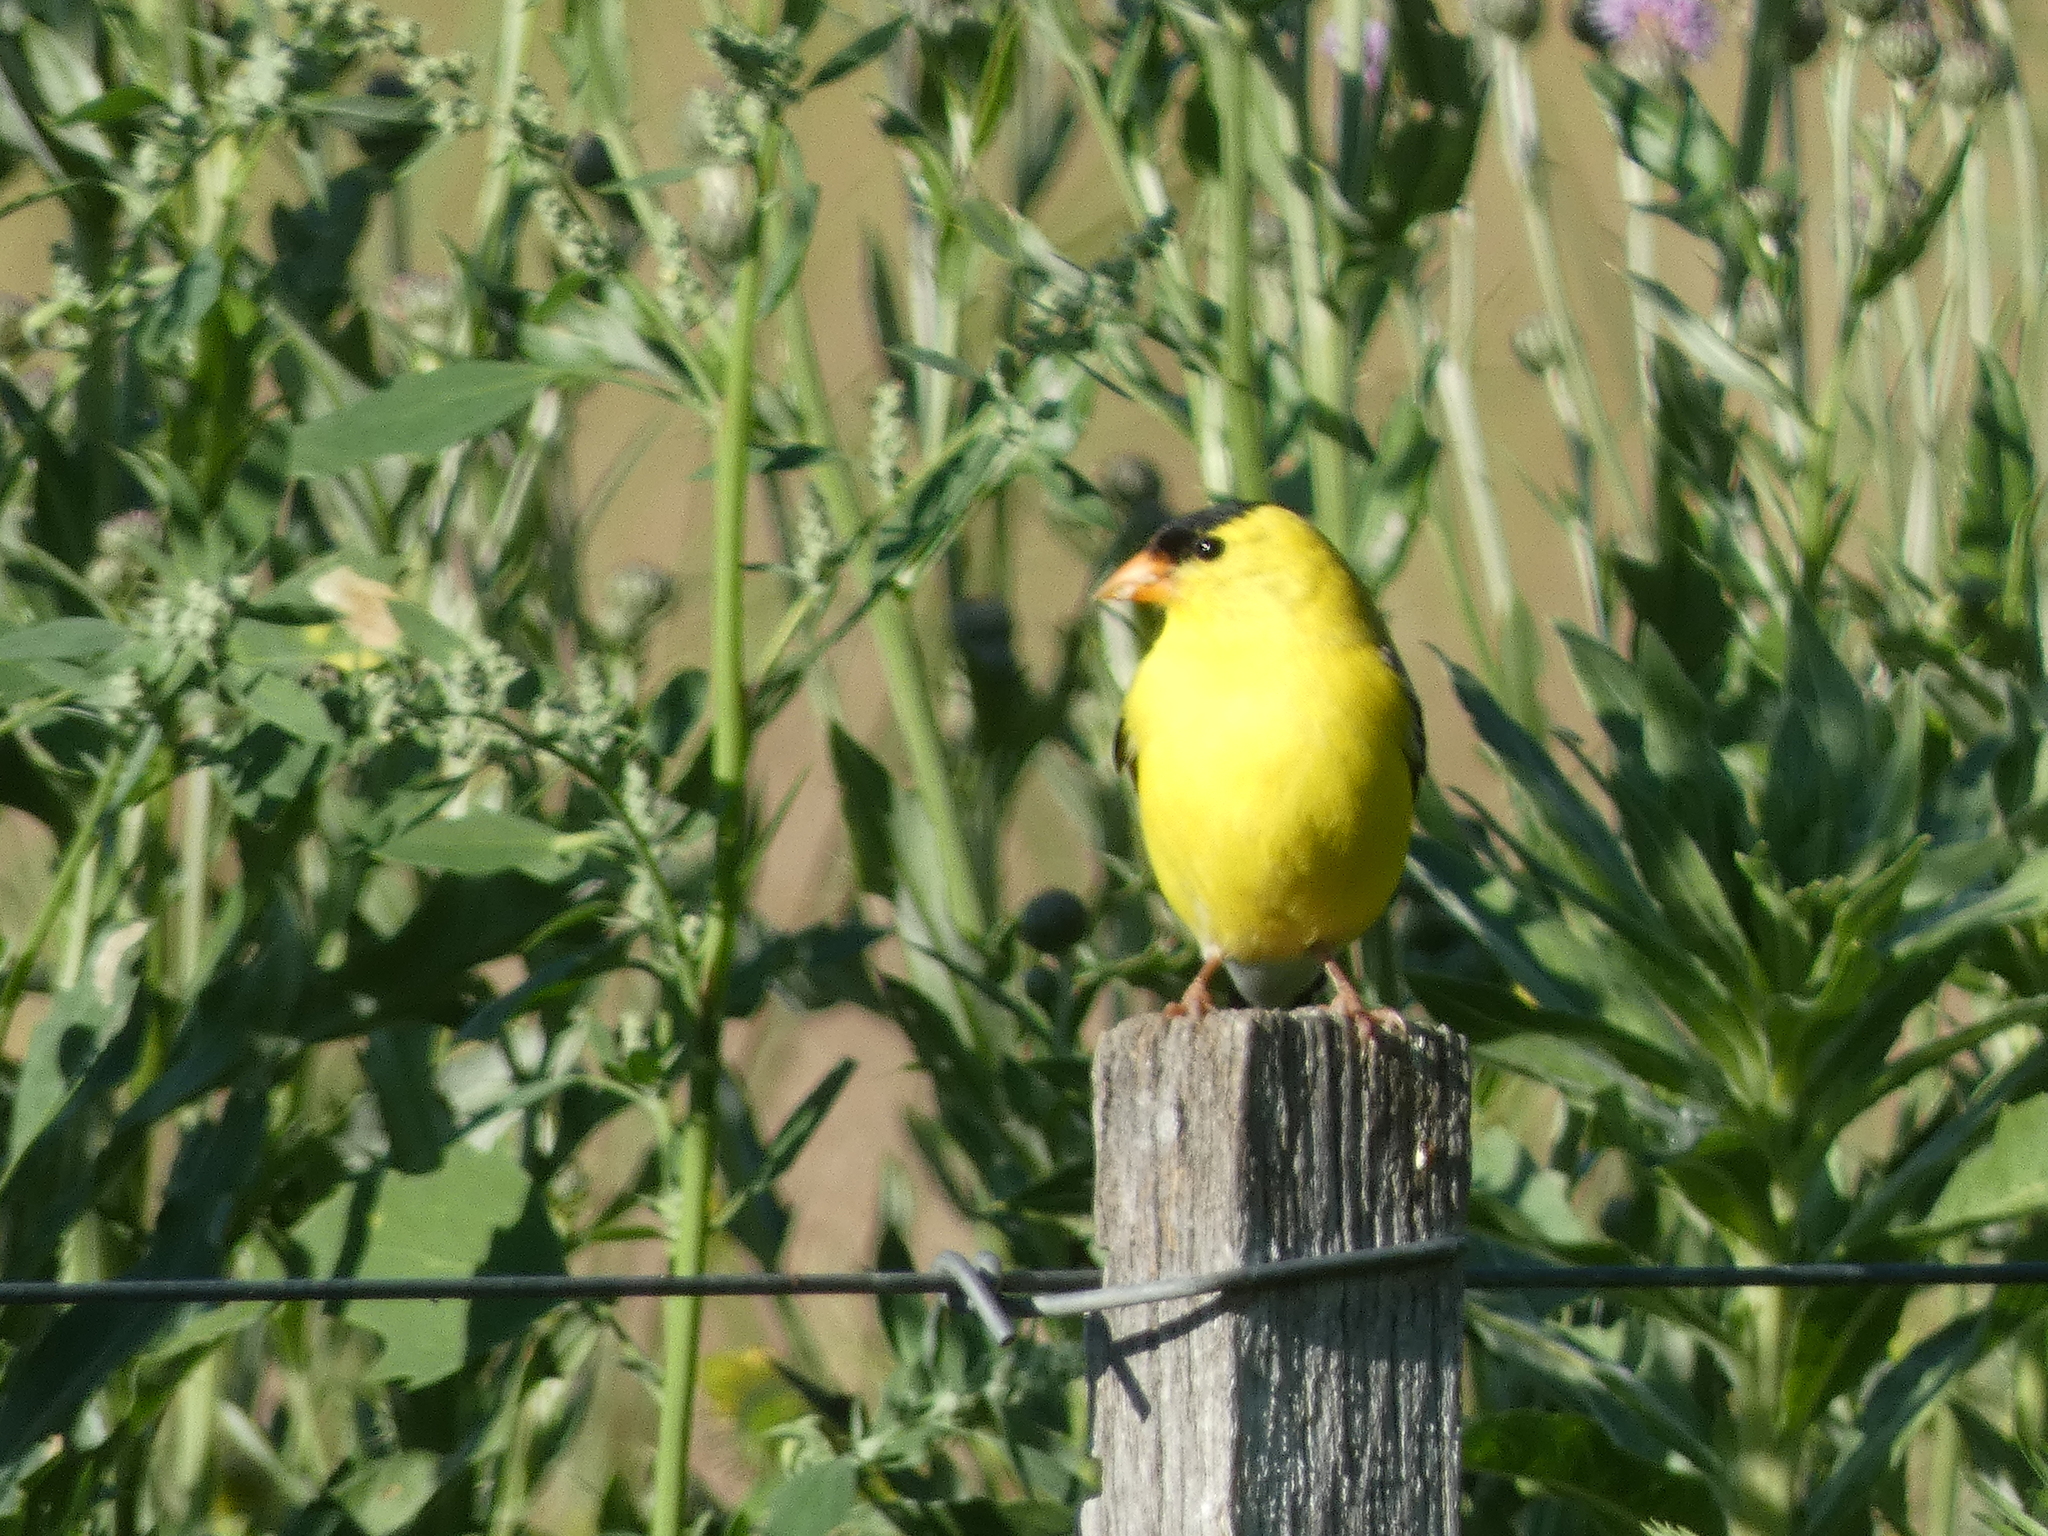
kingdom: Animalia
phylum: Chordata
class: Aves
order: Passeriformes
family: Fringillidae
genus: Spinus
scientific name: Spinus tristis
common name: American goldfinch
